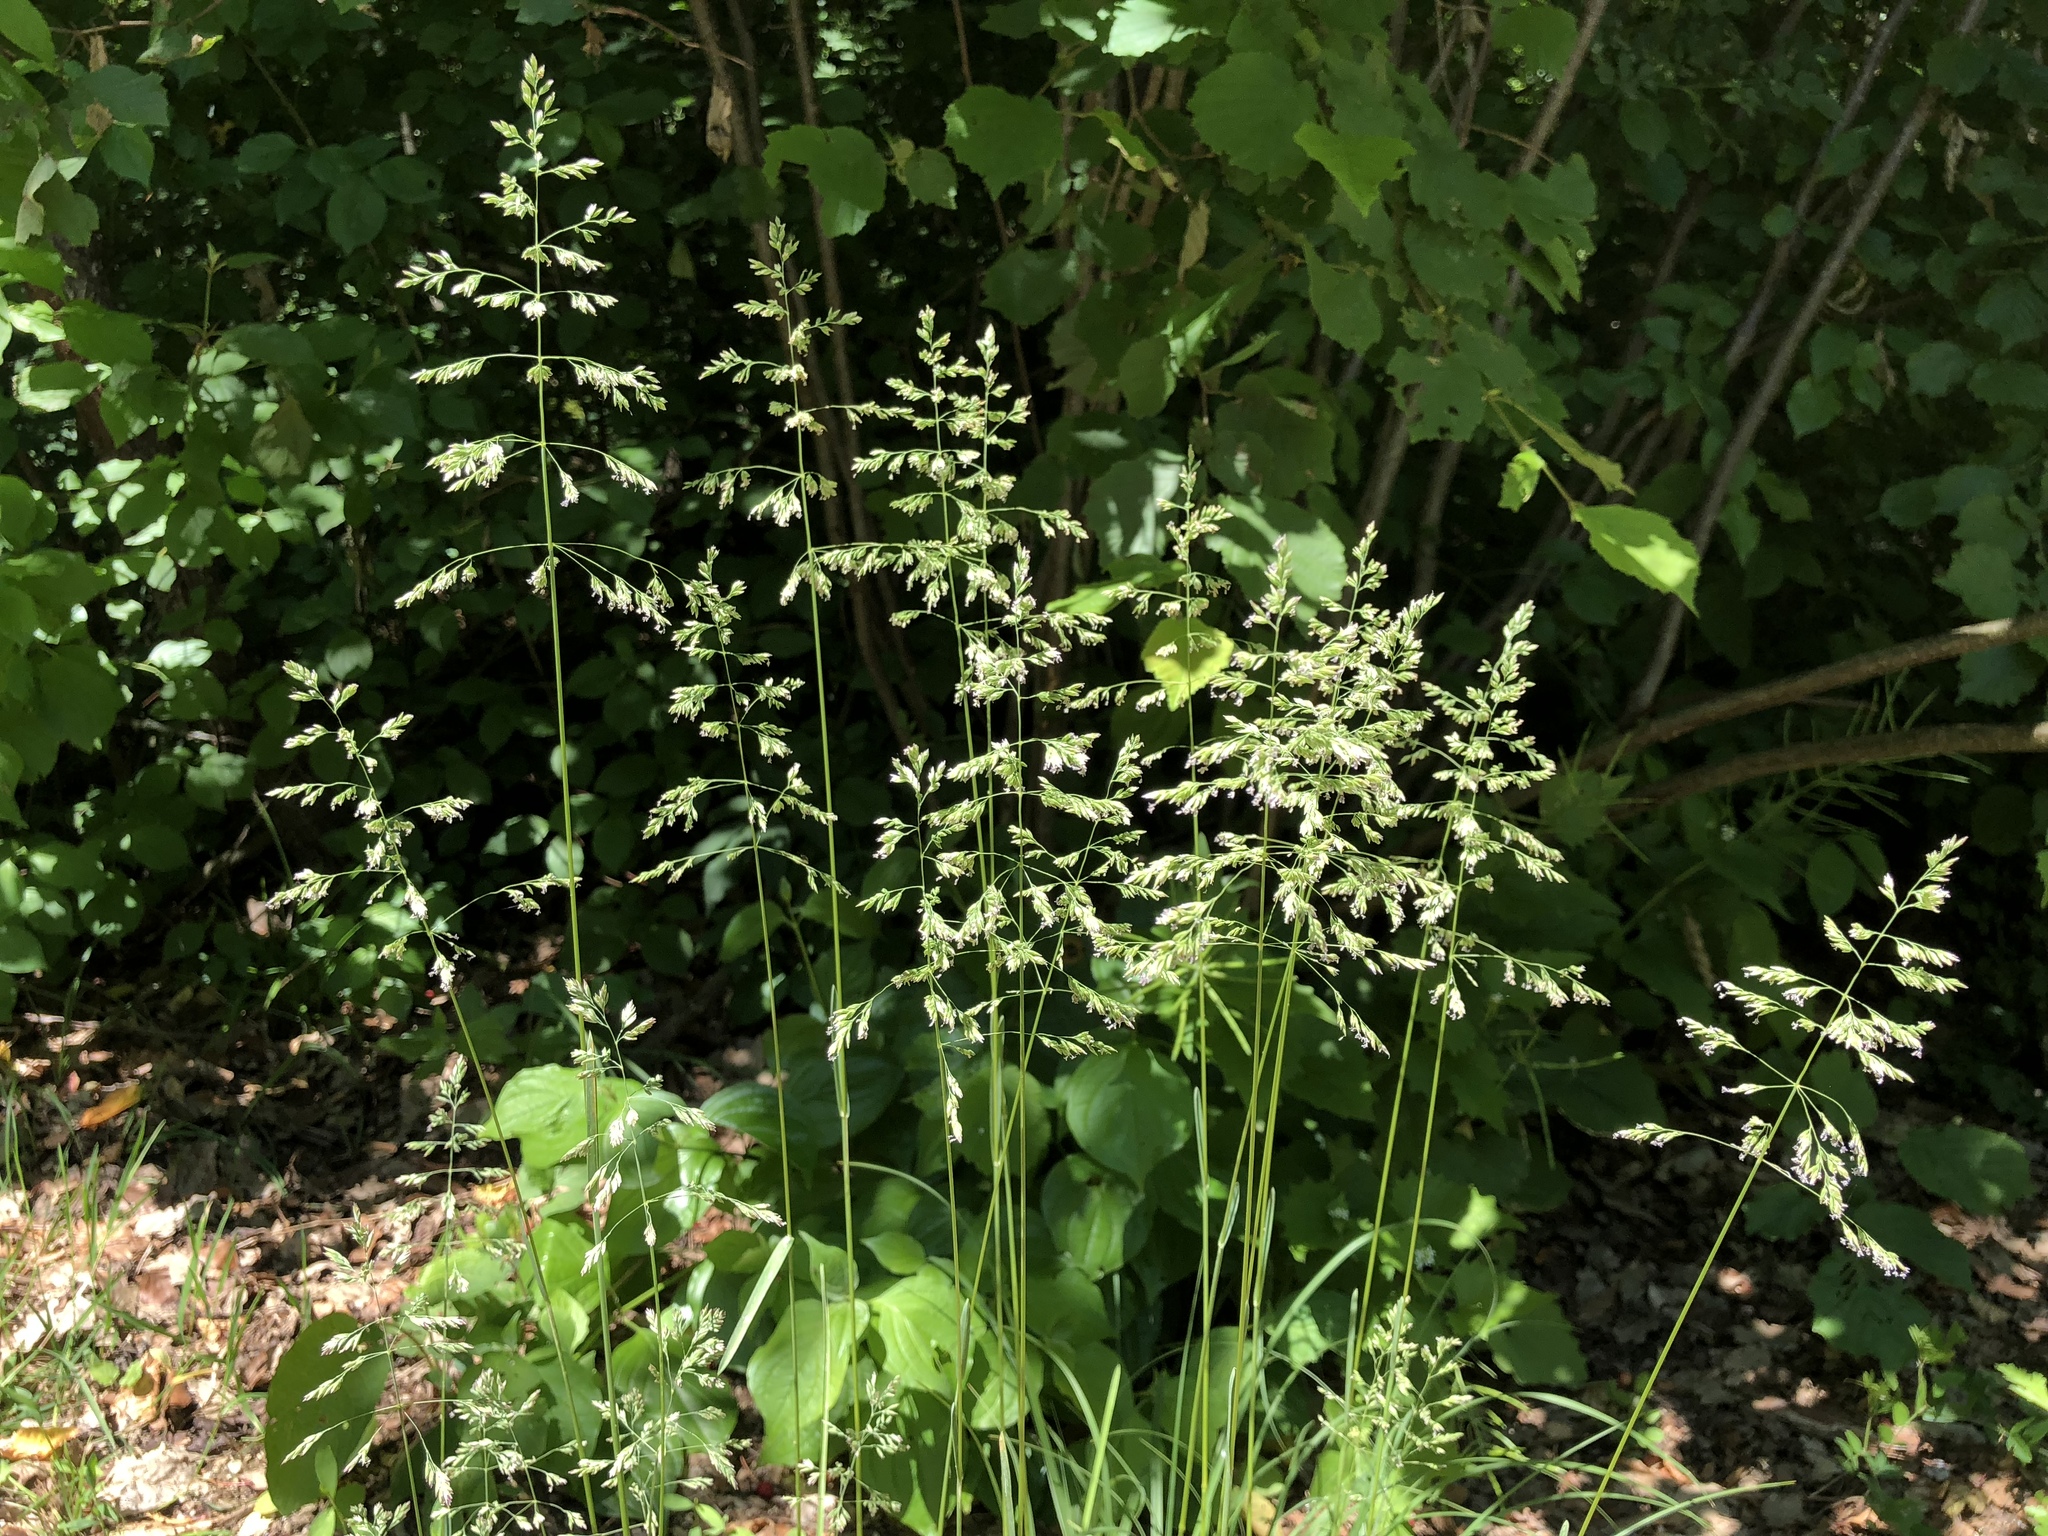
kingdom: Plantae
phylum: Tracheophyta
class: Liliopsida
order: Poales
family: Poaceae
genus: Poa
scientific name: Poa pratensis
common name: Kentucky bluegrass
